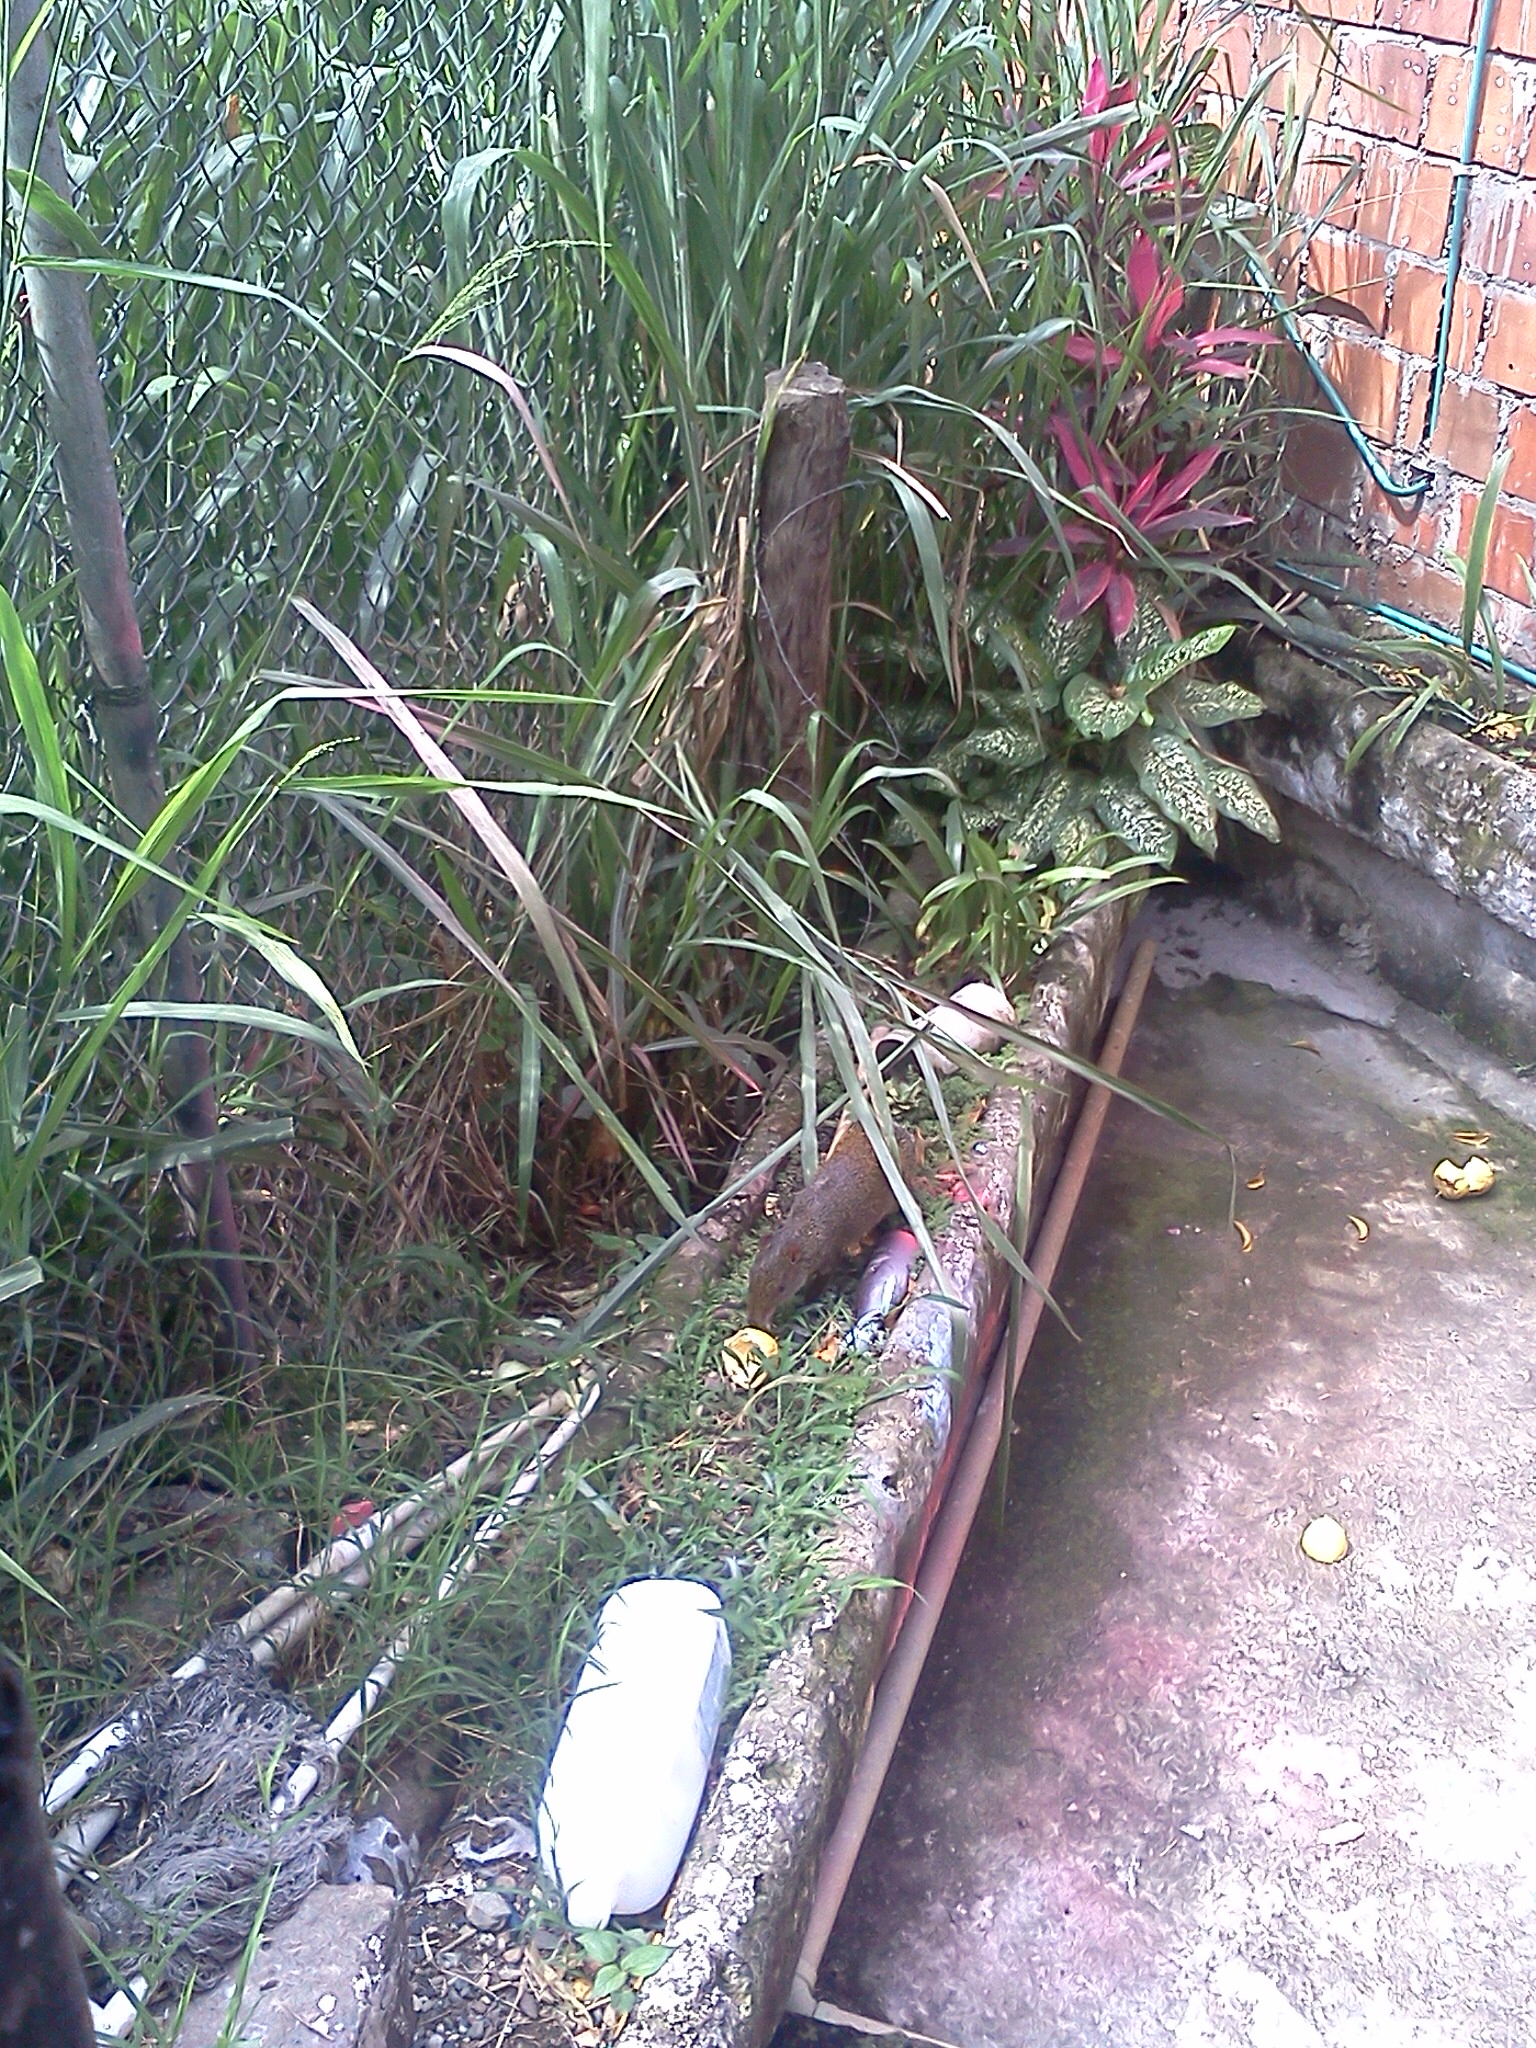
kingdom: Animalia
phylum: Chordata
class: Mammalia
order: Rodentia
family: Dasyproctidae
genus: Dasyprocta
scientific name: Dasyprocta punctata
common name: Central american agouti
